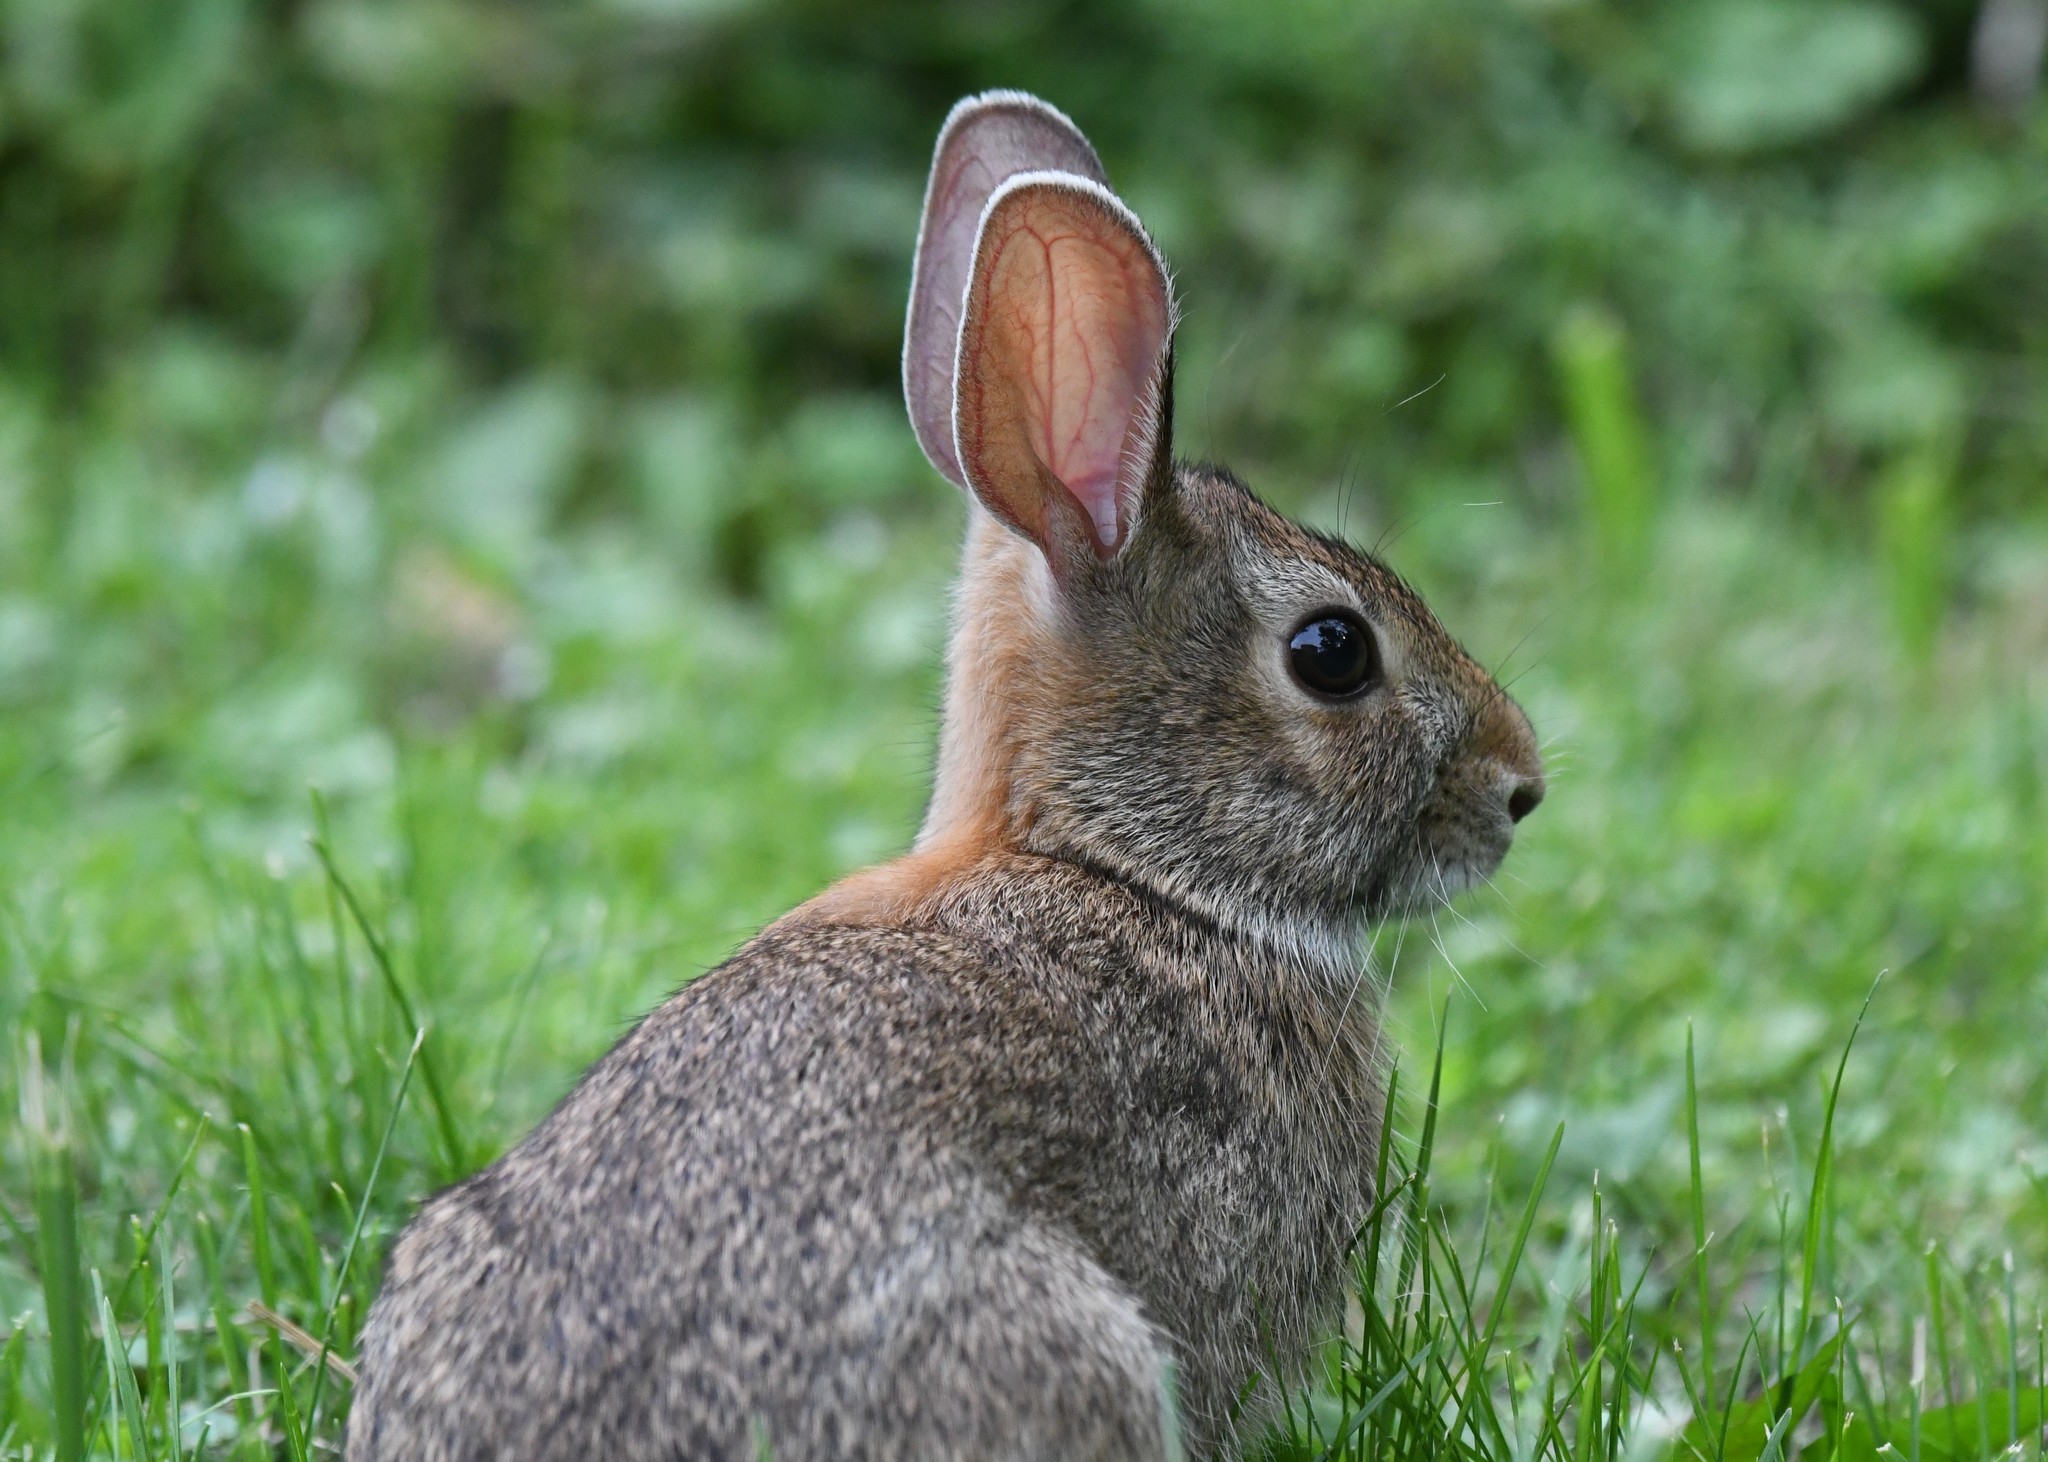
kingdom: Animalia
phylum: Chordata
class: Mammalia
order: Lagomorpha
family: Leporidae
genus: Sylvilagus
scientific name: Sylvilagus floridanus
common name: Eastern cottontail
